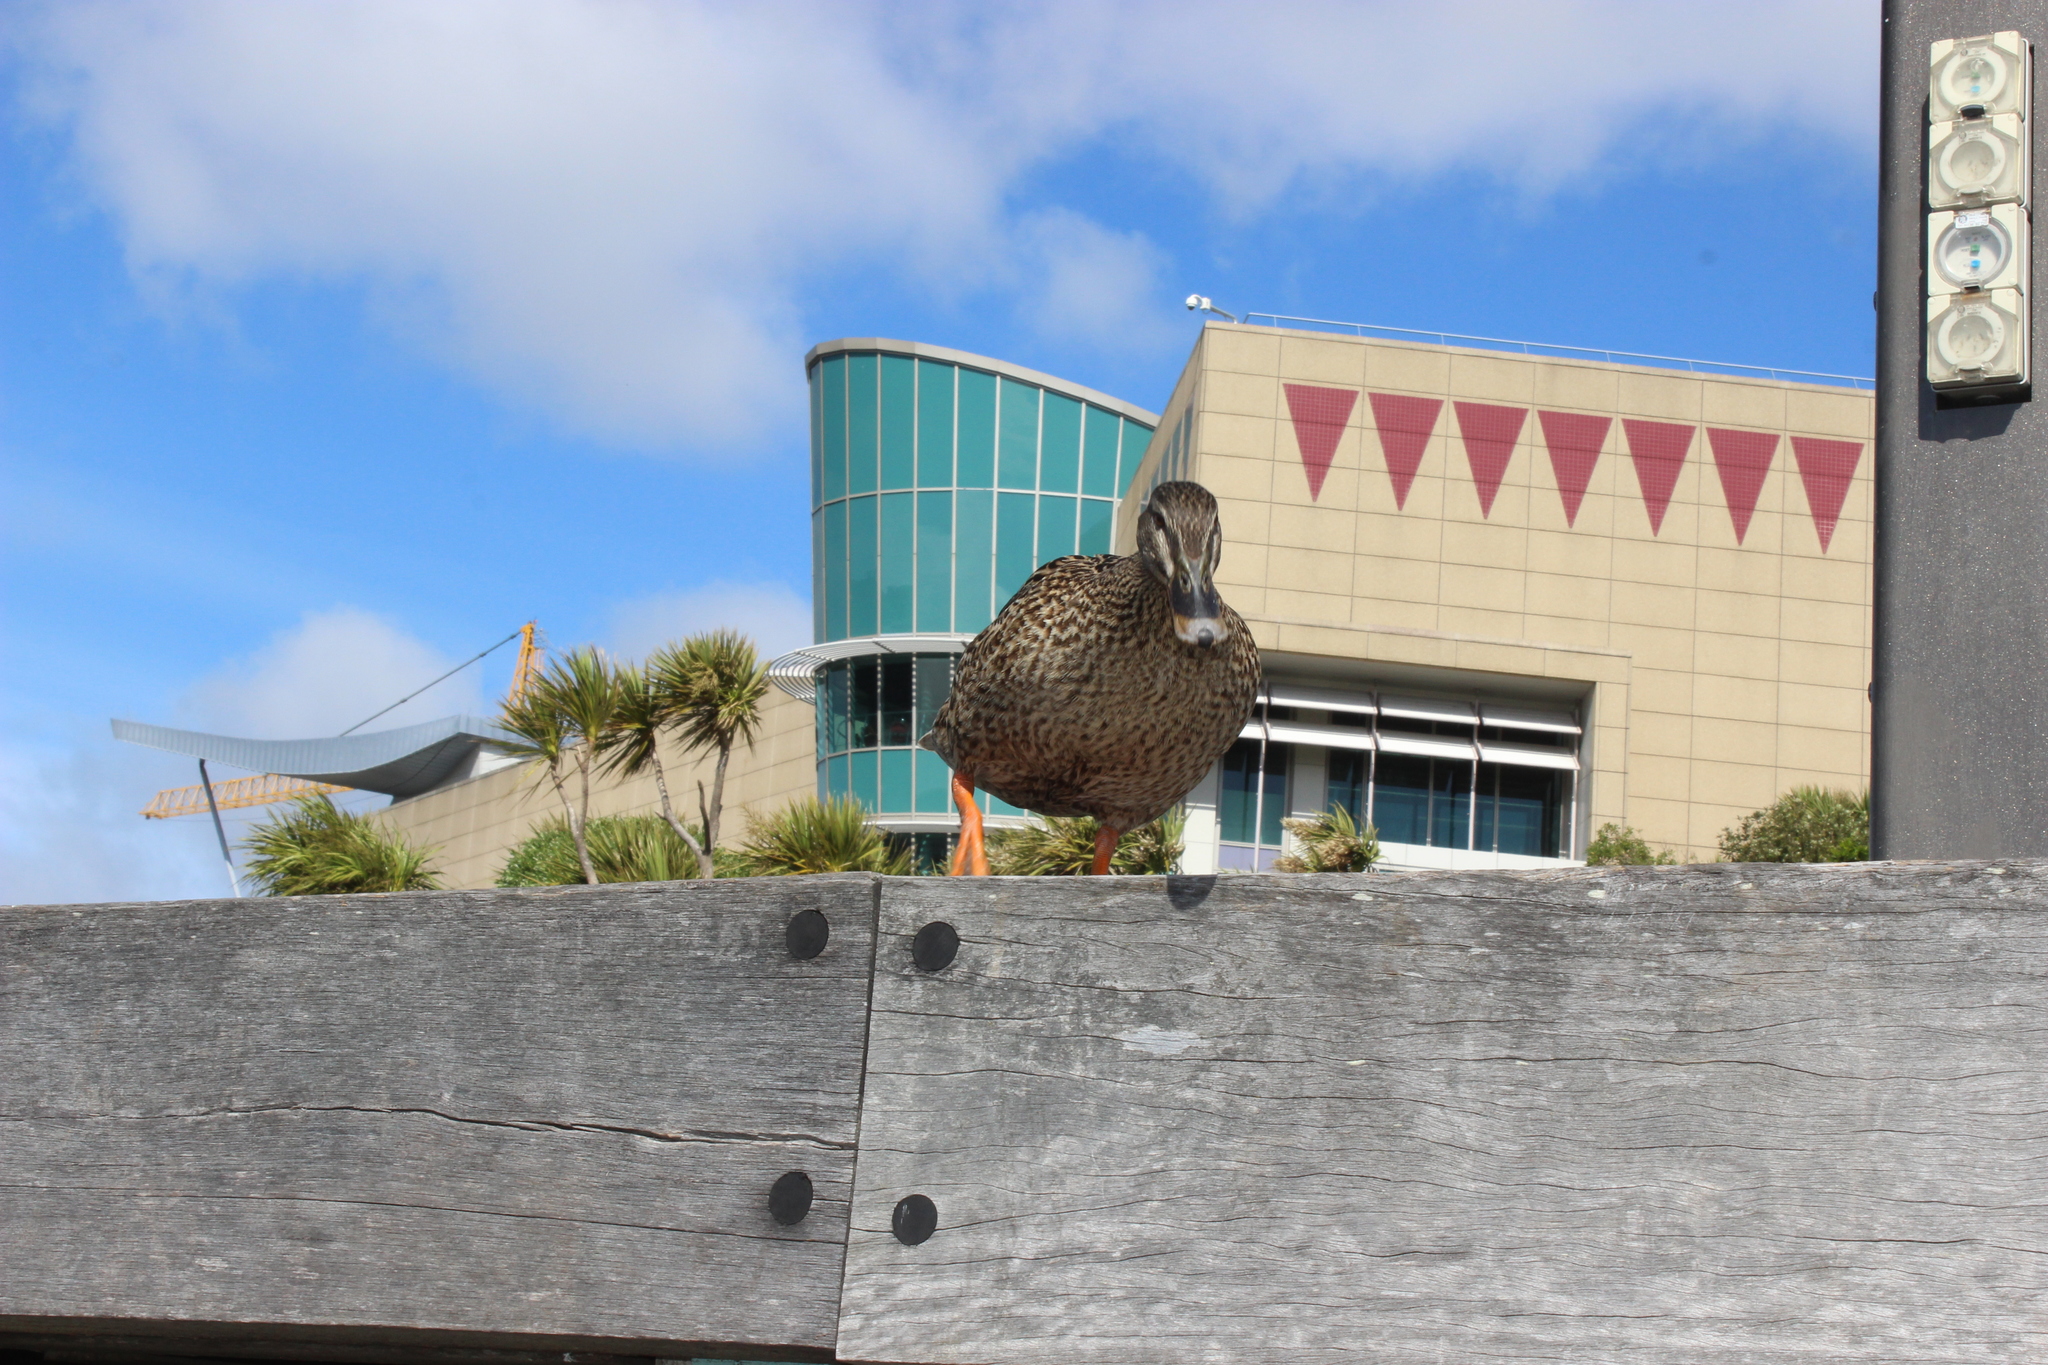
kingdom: Animalia
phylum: Chordata
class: Aves
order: Anseriformes
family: Anatidae
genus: Anas
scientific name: Anas
